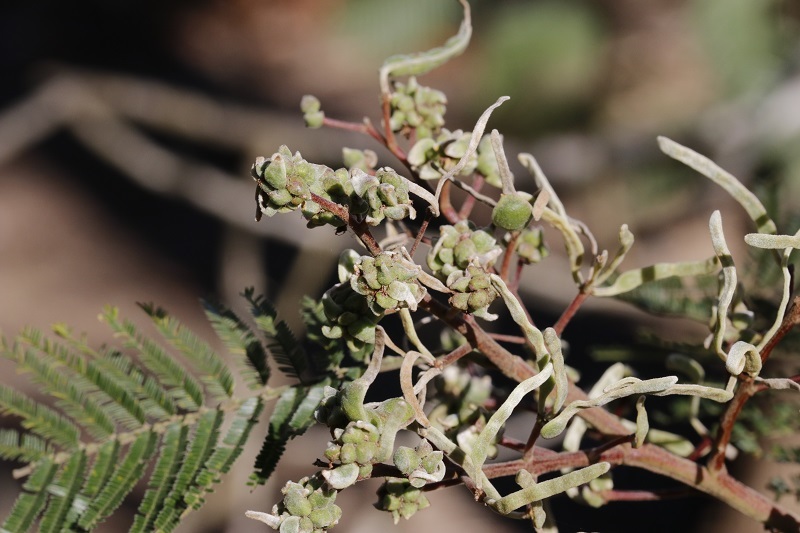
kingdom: Animalia
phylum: Arthropoda
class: Insecta
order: Diptera
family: Cecidomyiidae
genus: Dasineura
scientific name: Dasineura rubiformis
